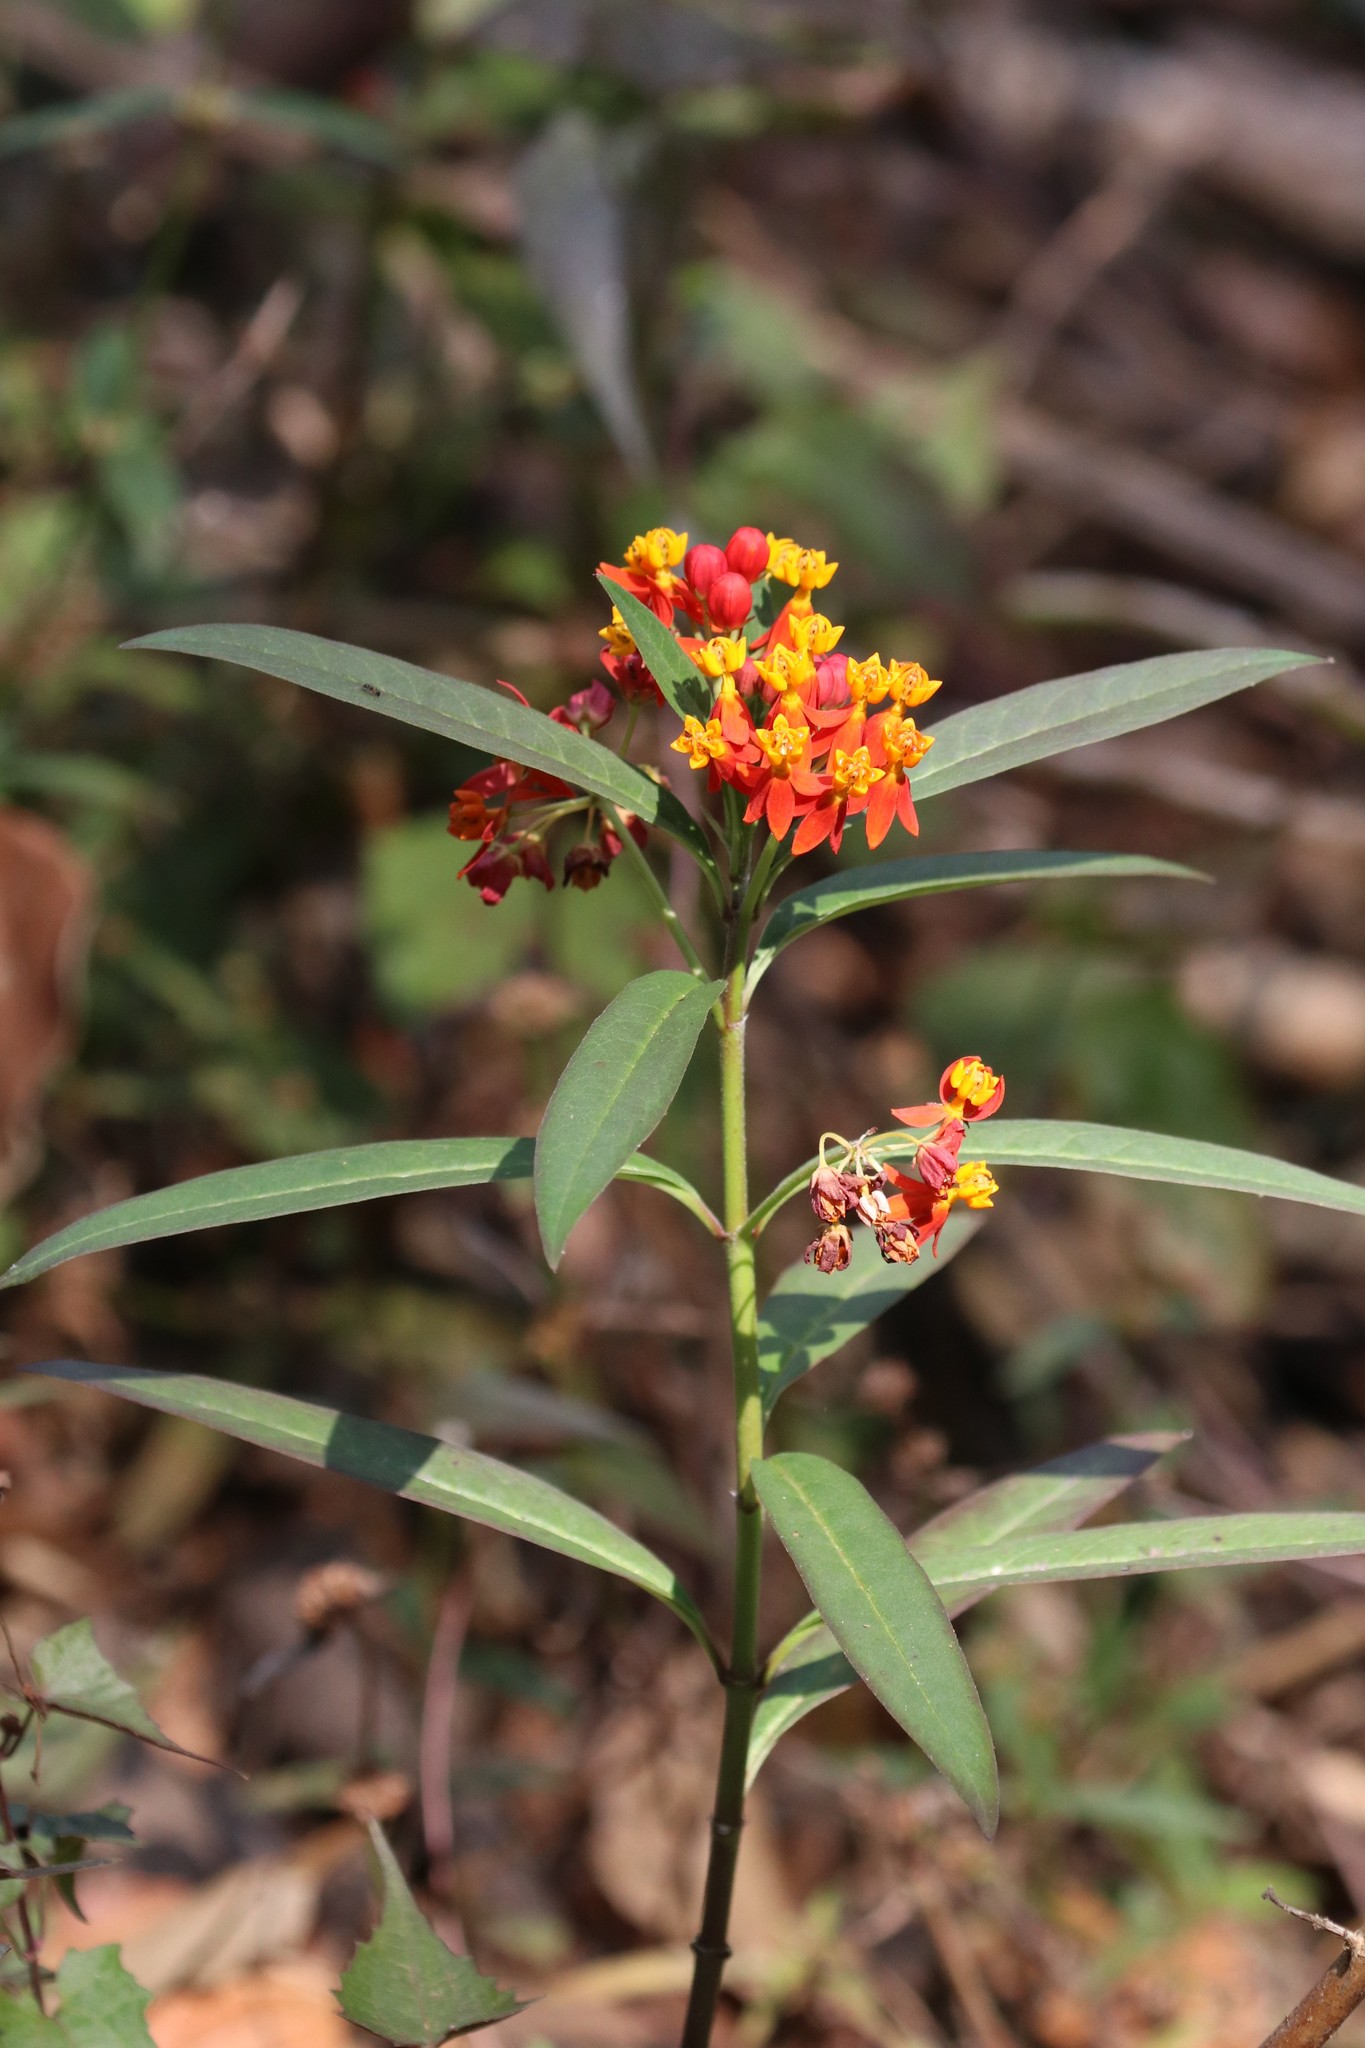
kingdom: Plantae
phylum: Tracheophyta
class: Magnoliopsida
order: Gentianales
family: Apocynaceae
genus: Asclepias
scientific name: Asclepias curassavica
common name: Bloodflower
